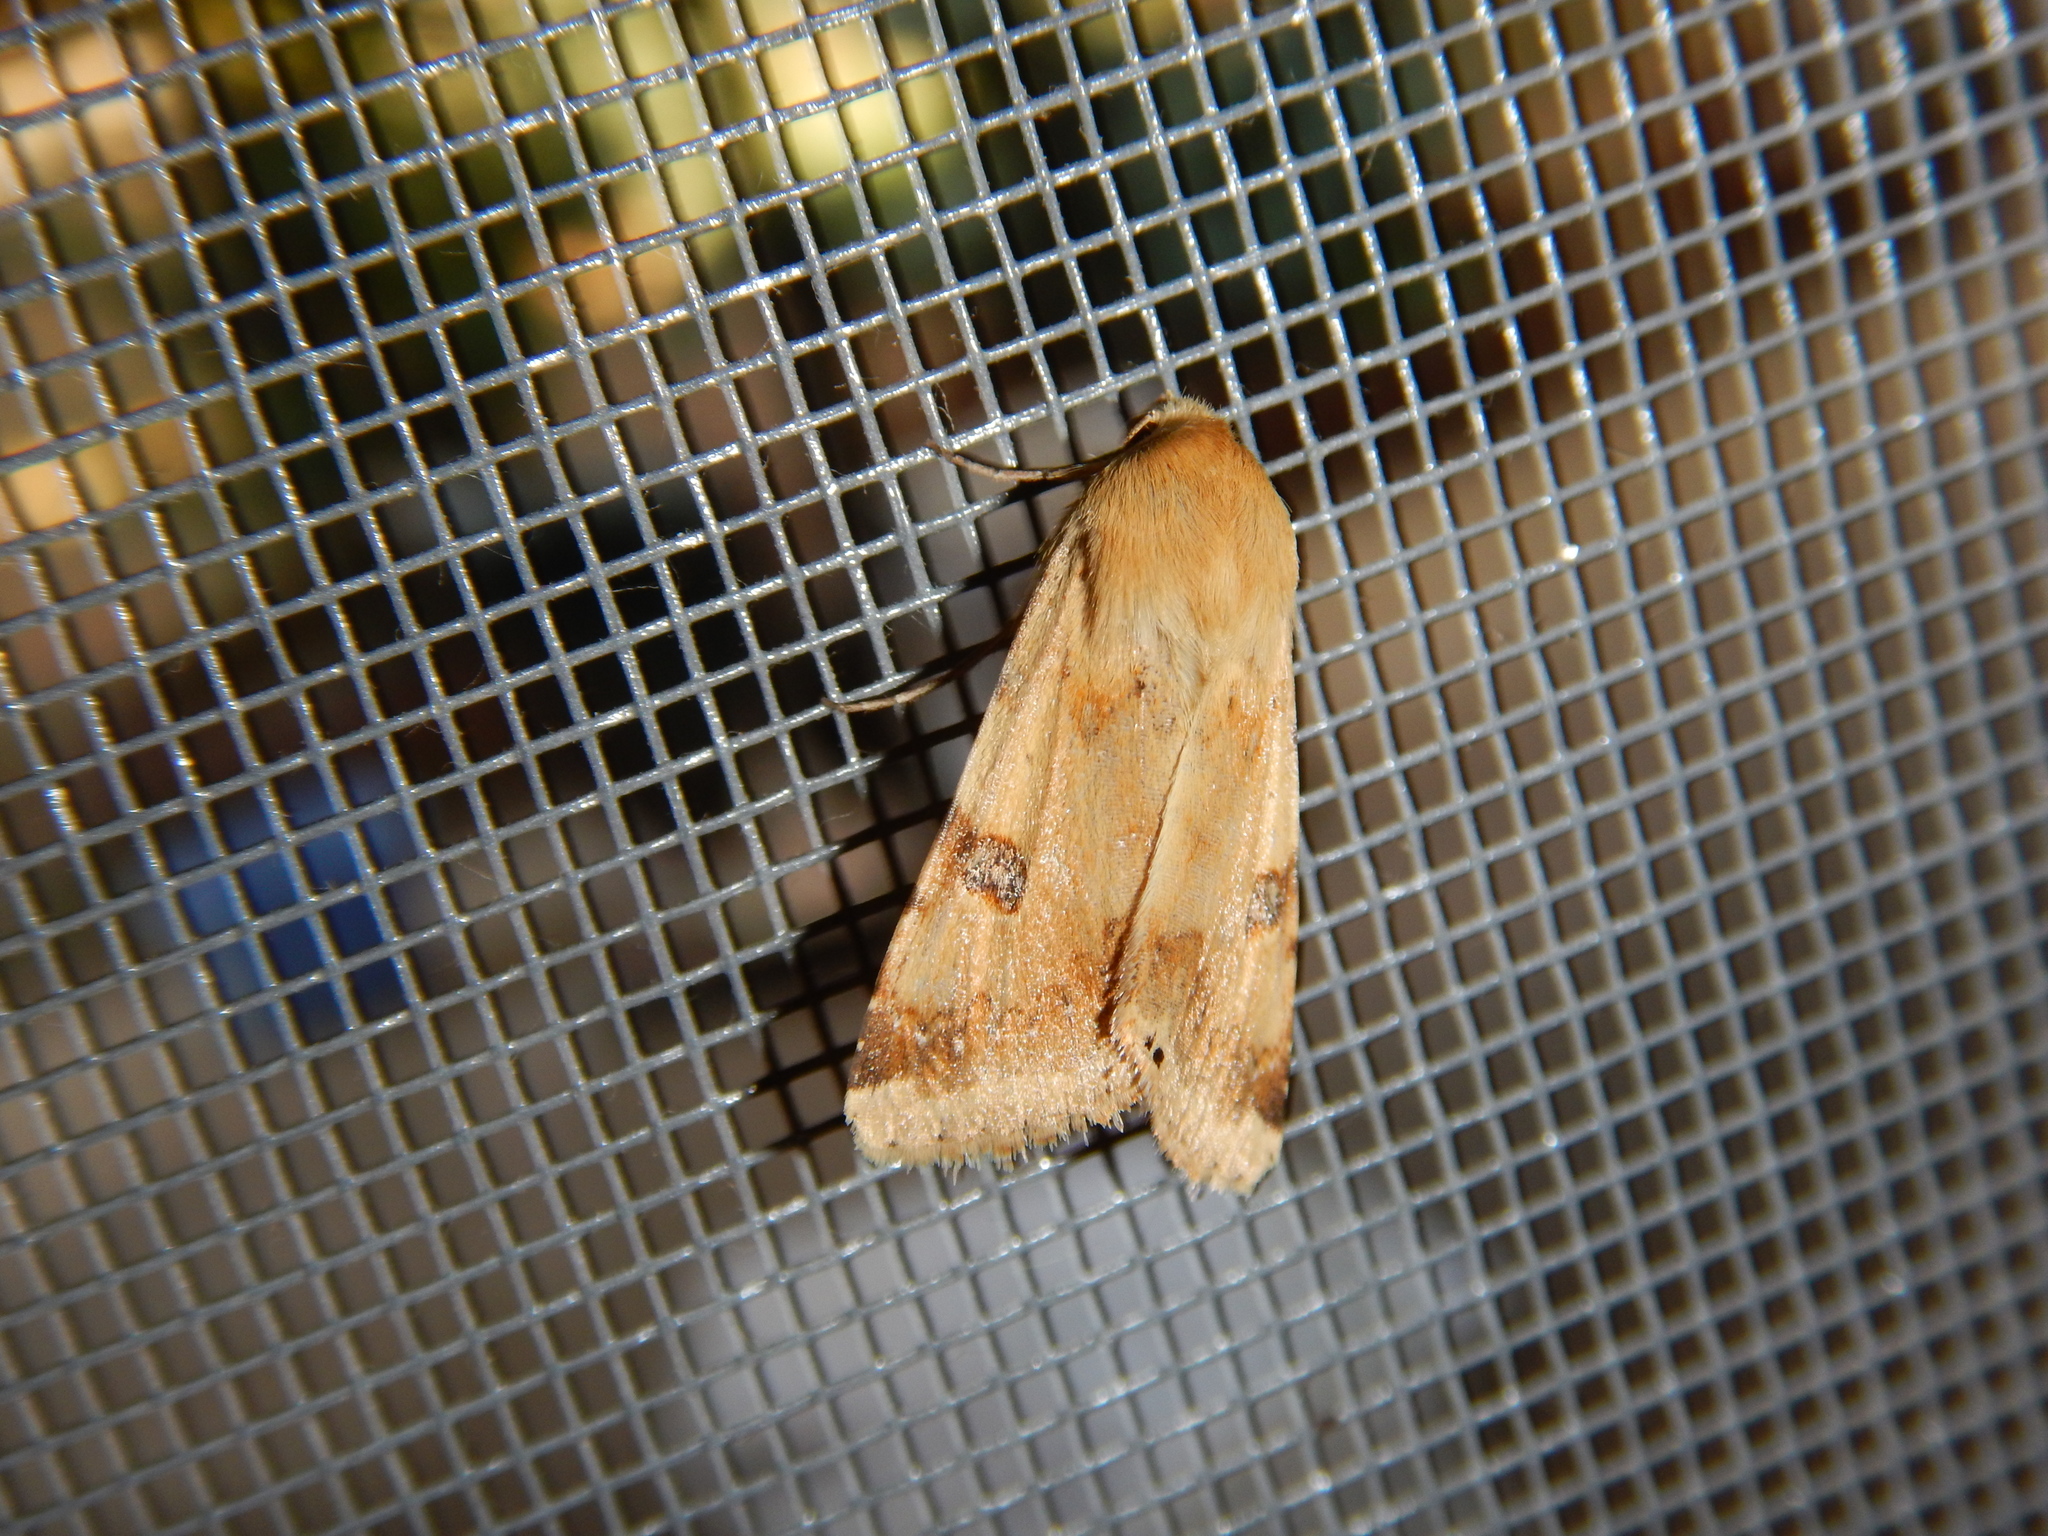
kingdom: Animalia
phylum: Arthropoda
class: Insecta
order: Lepidoptera
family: Noctuidae
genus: Heliothis
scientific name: Heliothis peltigera
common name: Bordered straw
